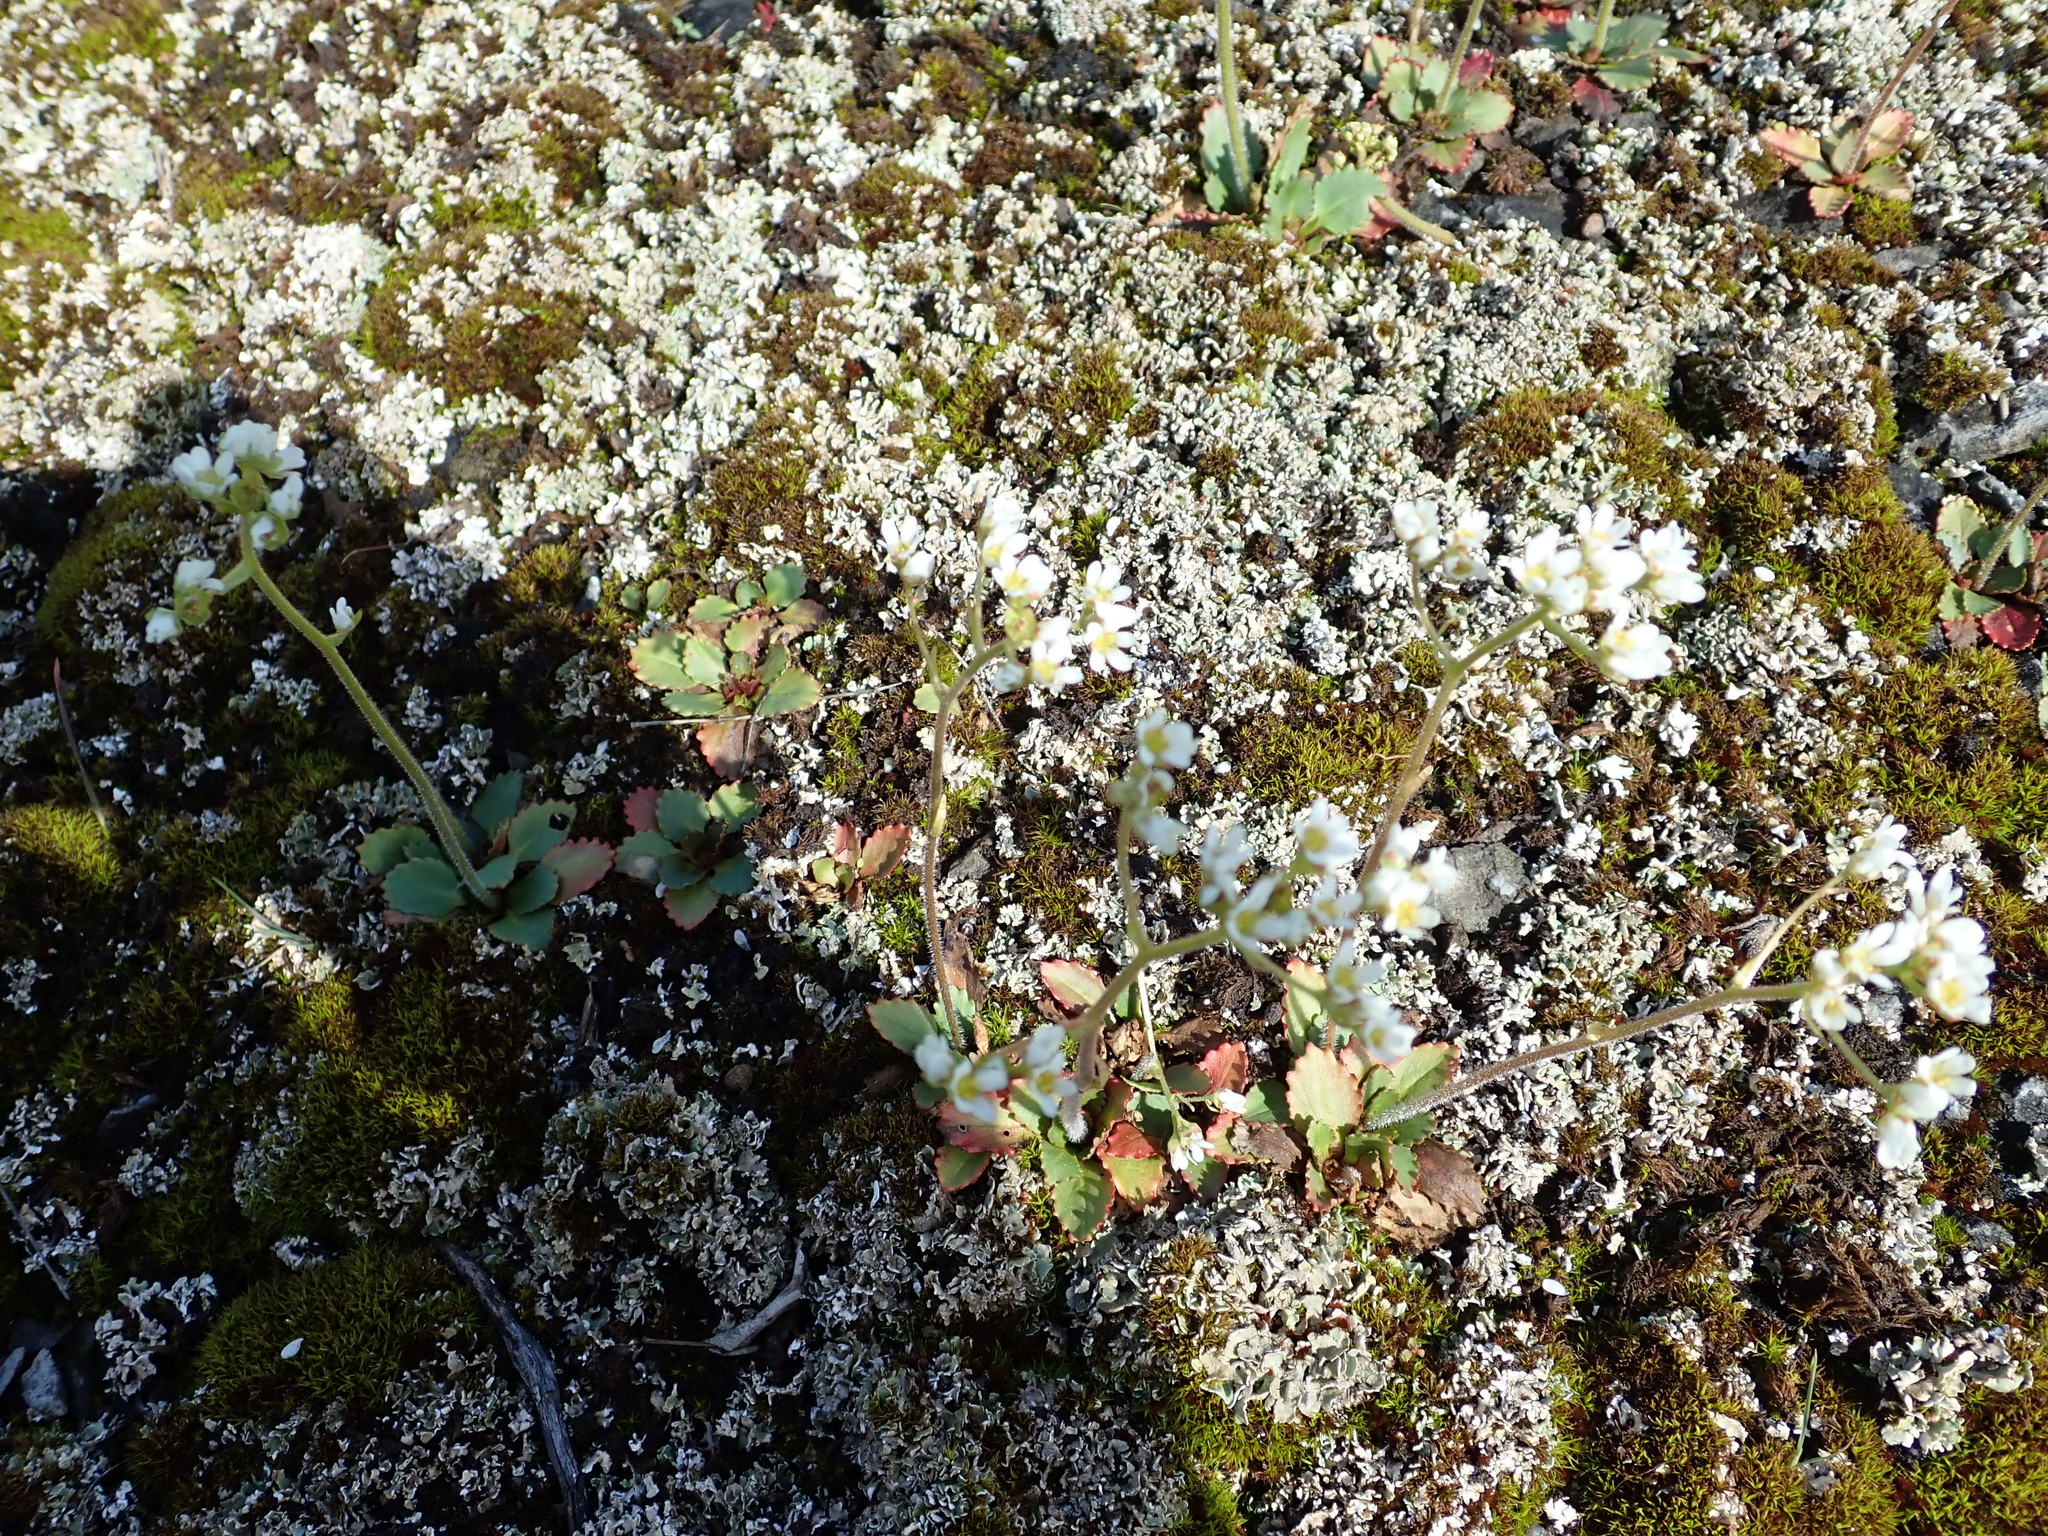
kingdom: Plantae
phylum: Tracheophyta
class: Magnoliopsida
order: Saxifragales
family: Saxifragaceae
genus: Micranthes
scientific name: Micranthes virginiensis
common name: Early saxifrage
